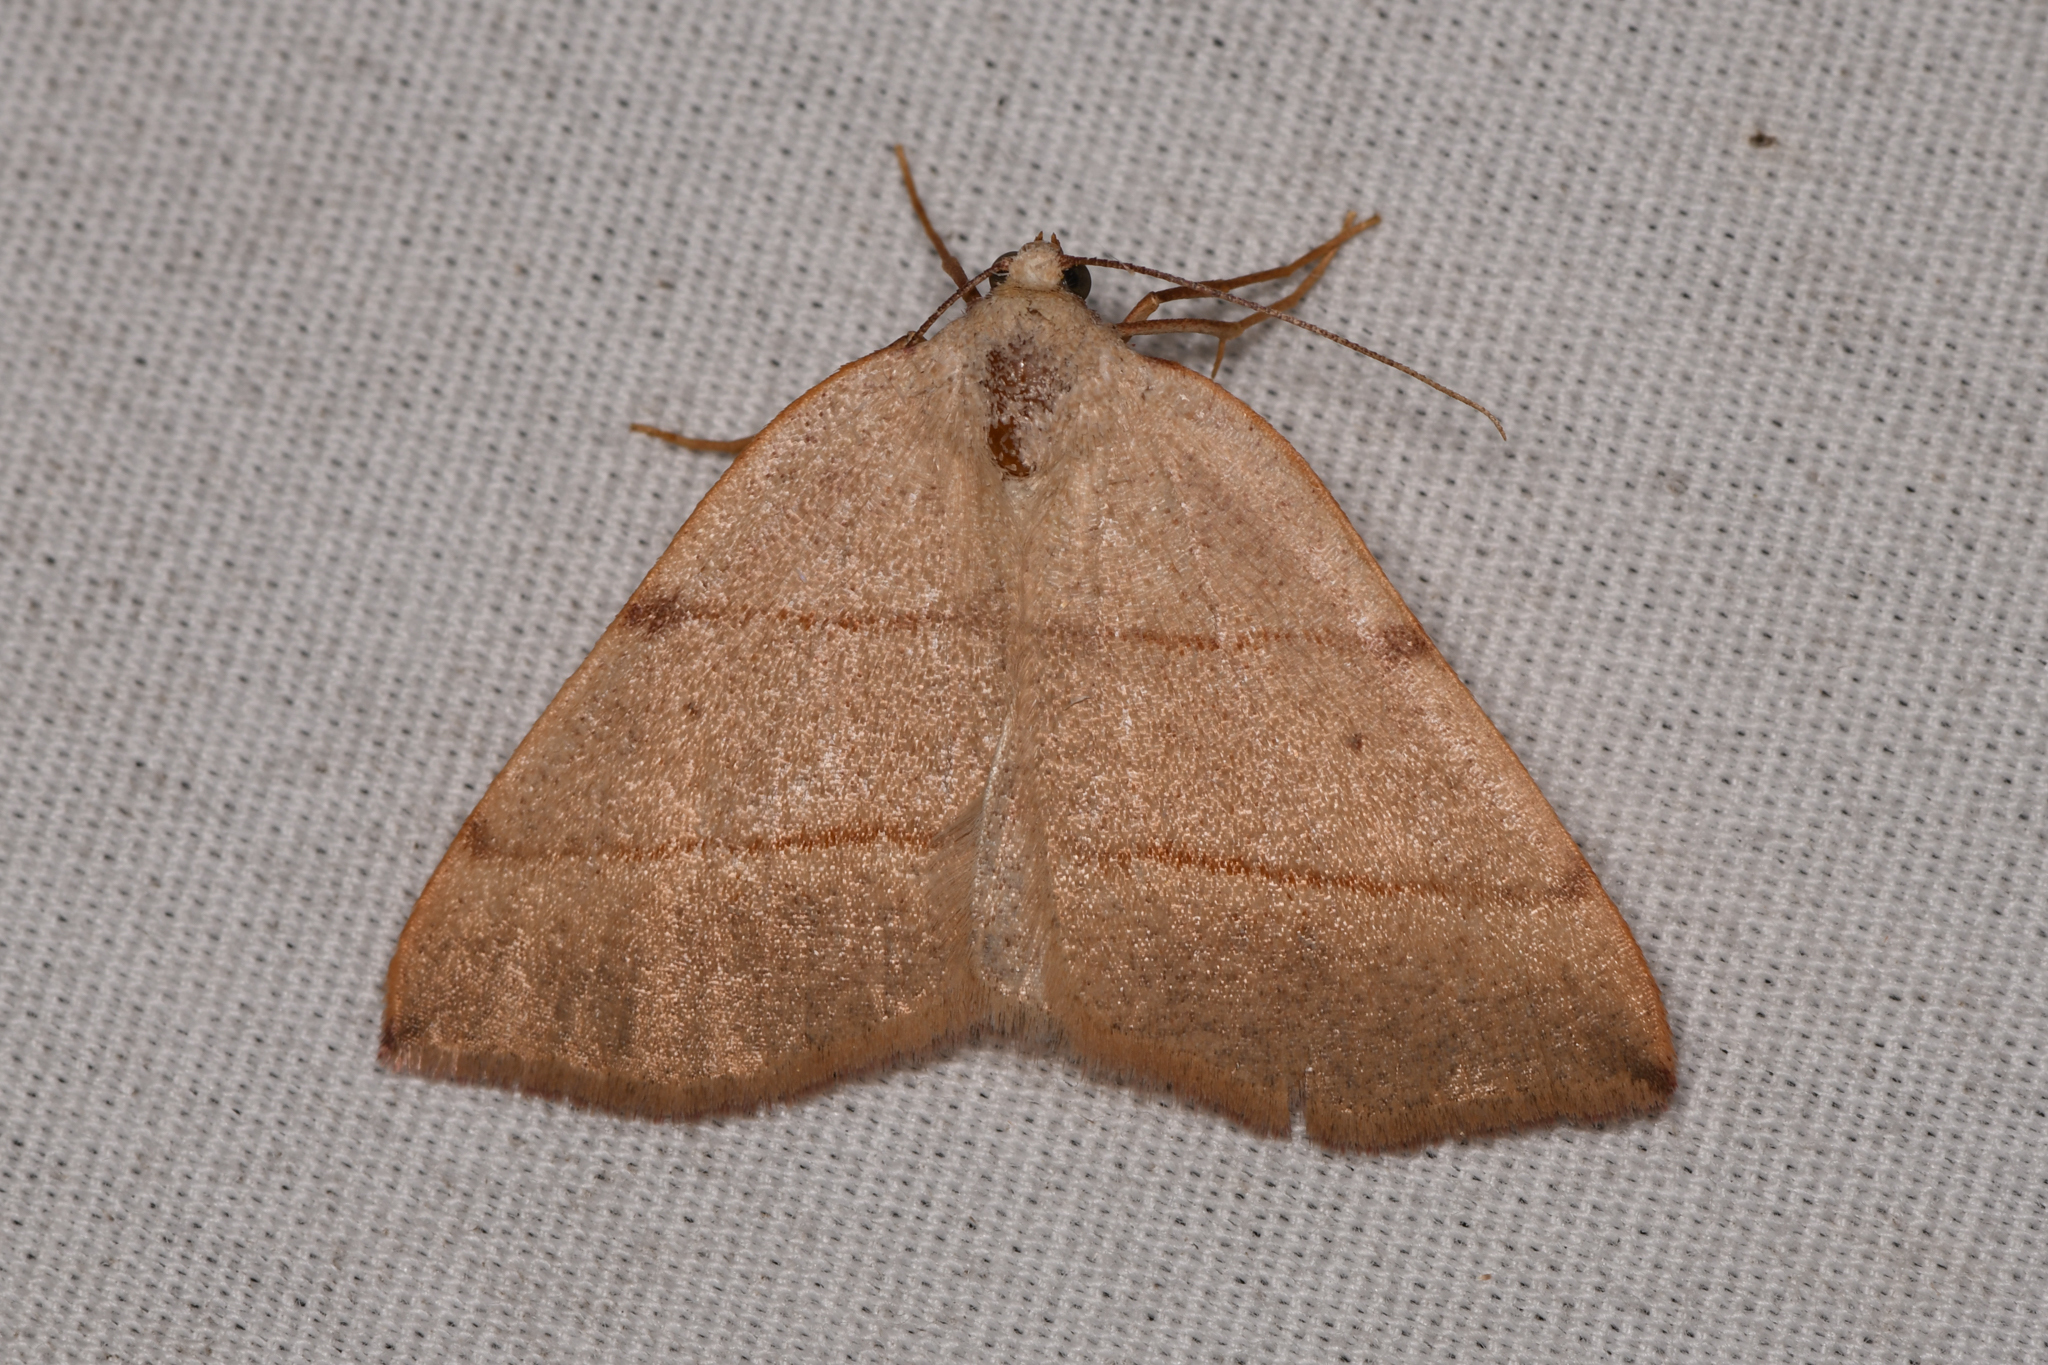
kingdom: Animalia
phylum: Arthropoda
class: Insecta
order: Lepidoptera
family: Geometridae
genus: Drepanulatrix
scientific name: Drepanulatrix bifilata
